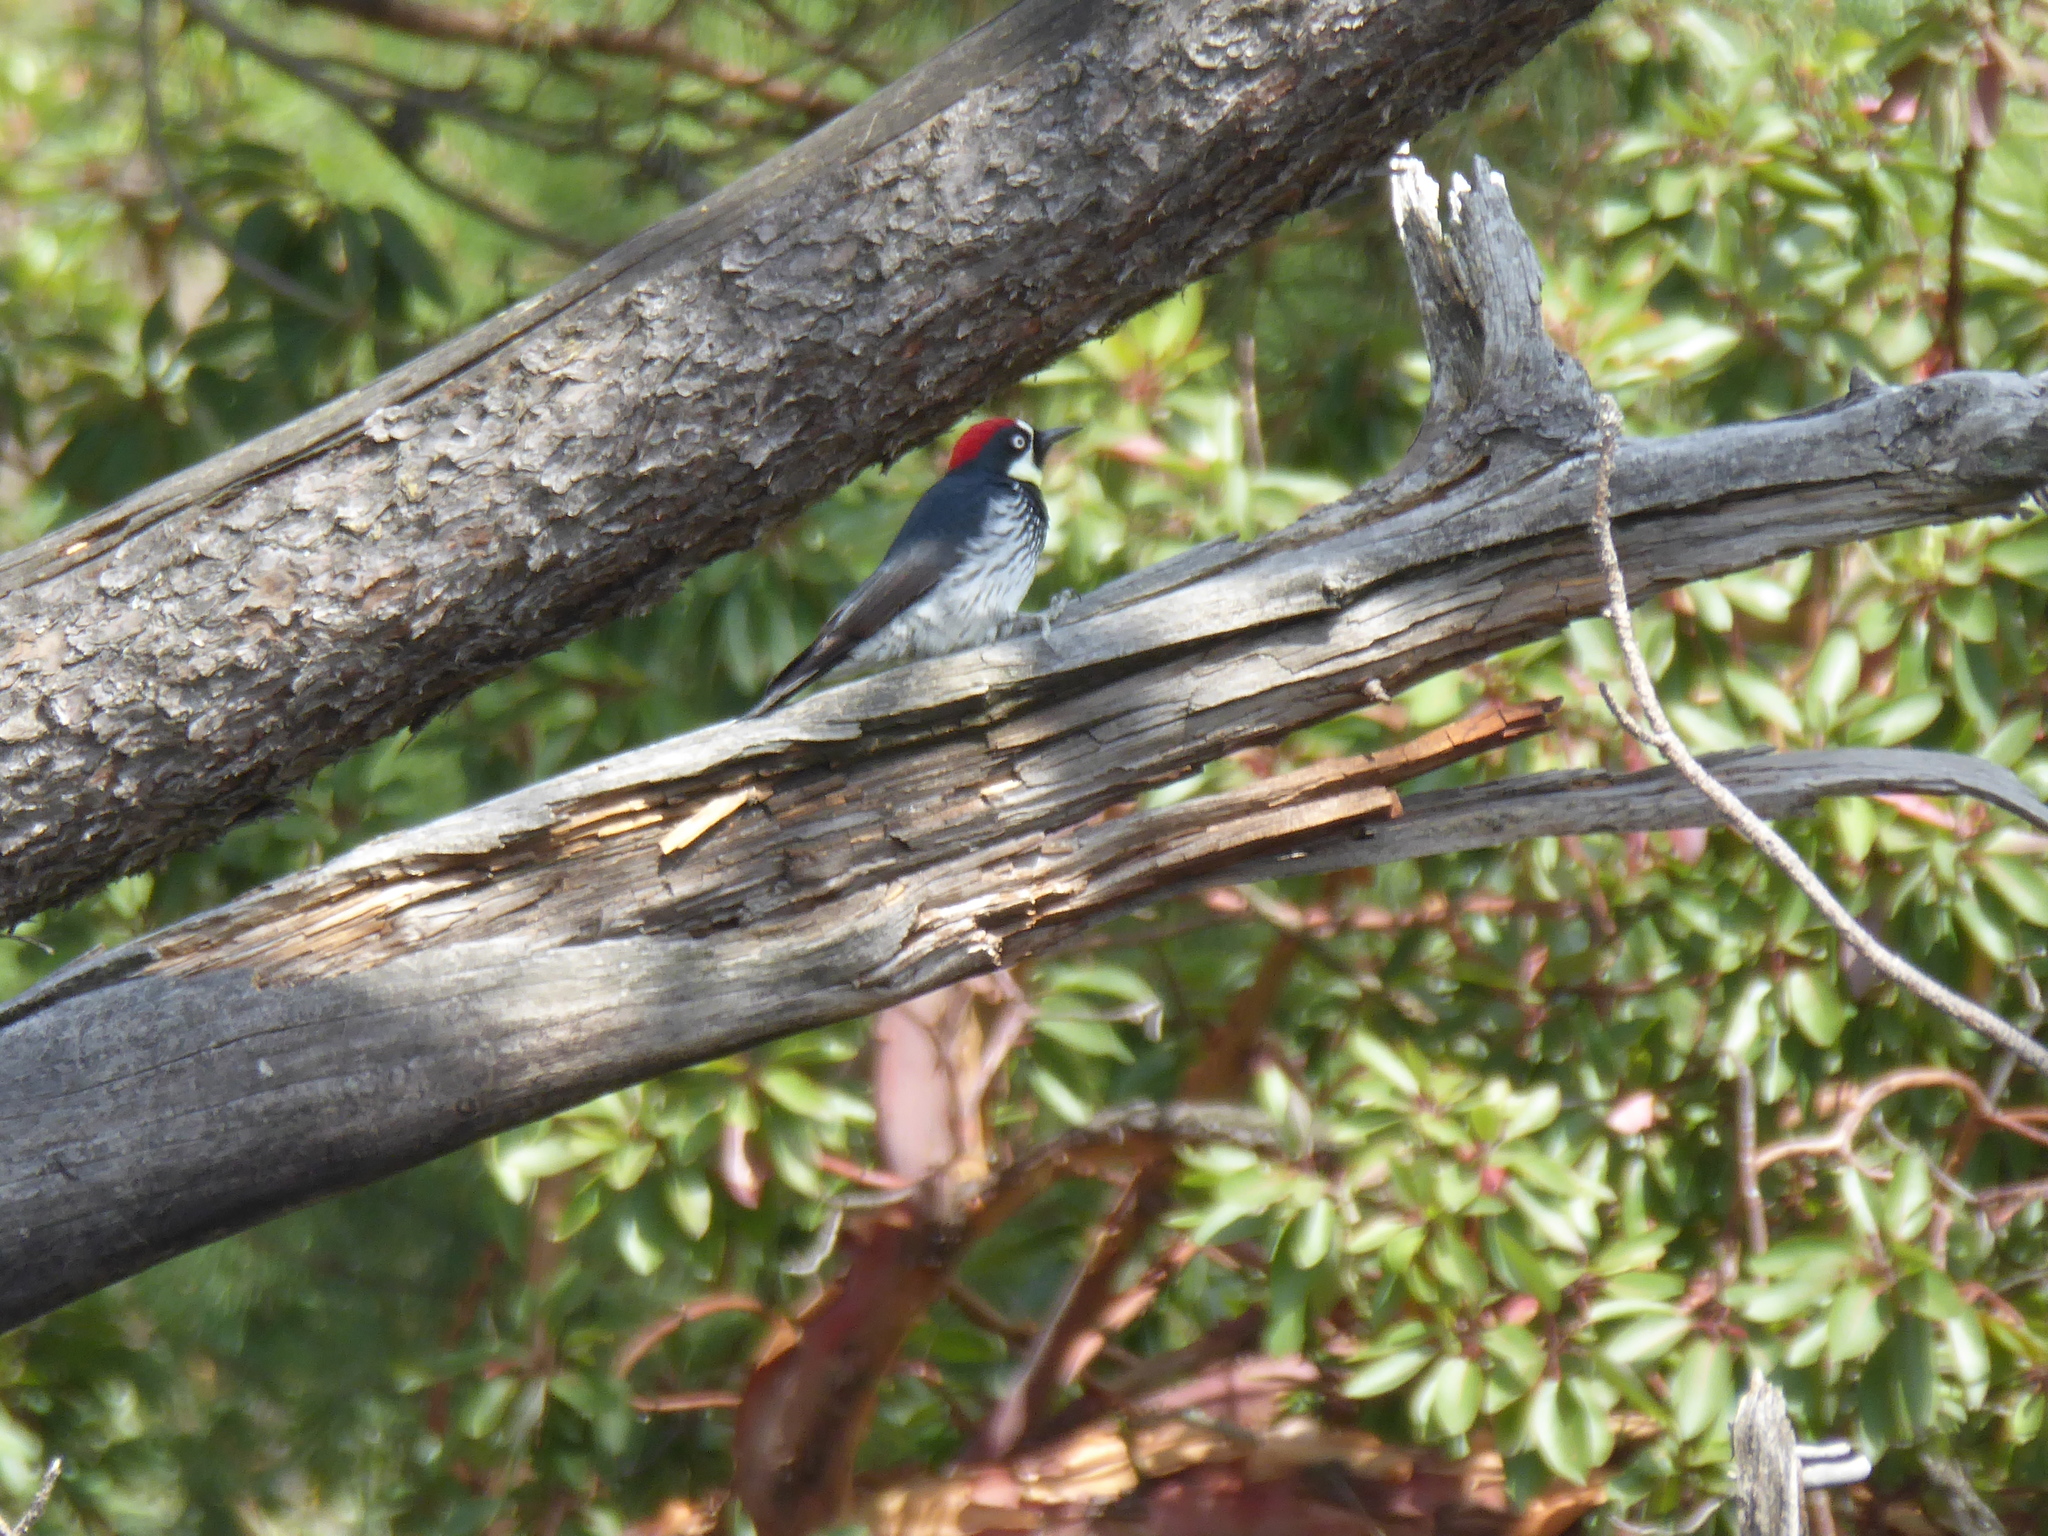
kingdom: Animalia
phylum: Chordata
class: Aves
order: Piciformes
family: Picidae
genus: Melanerpes
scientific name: Melanerpes formicivorus
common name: Acorn woodpecker
